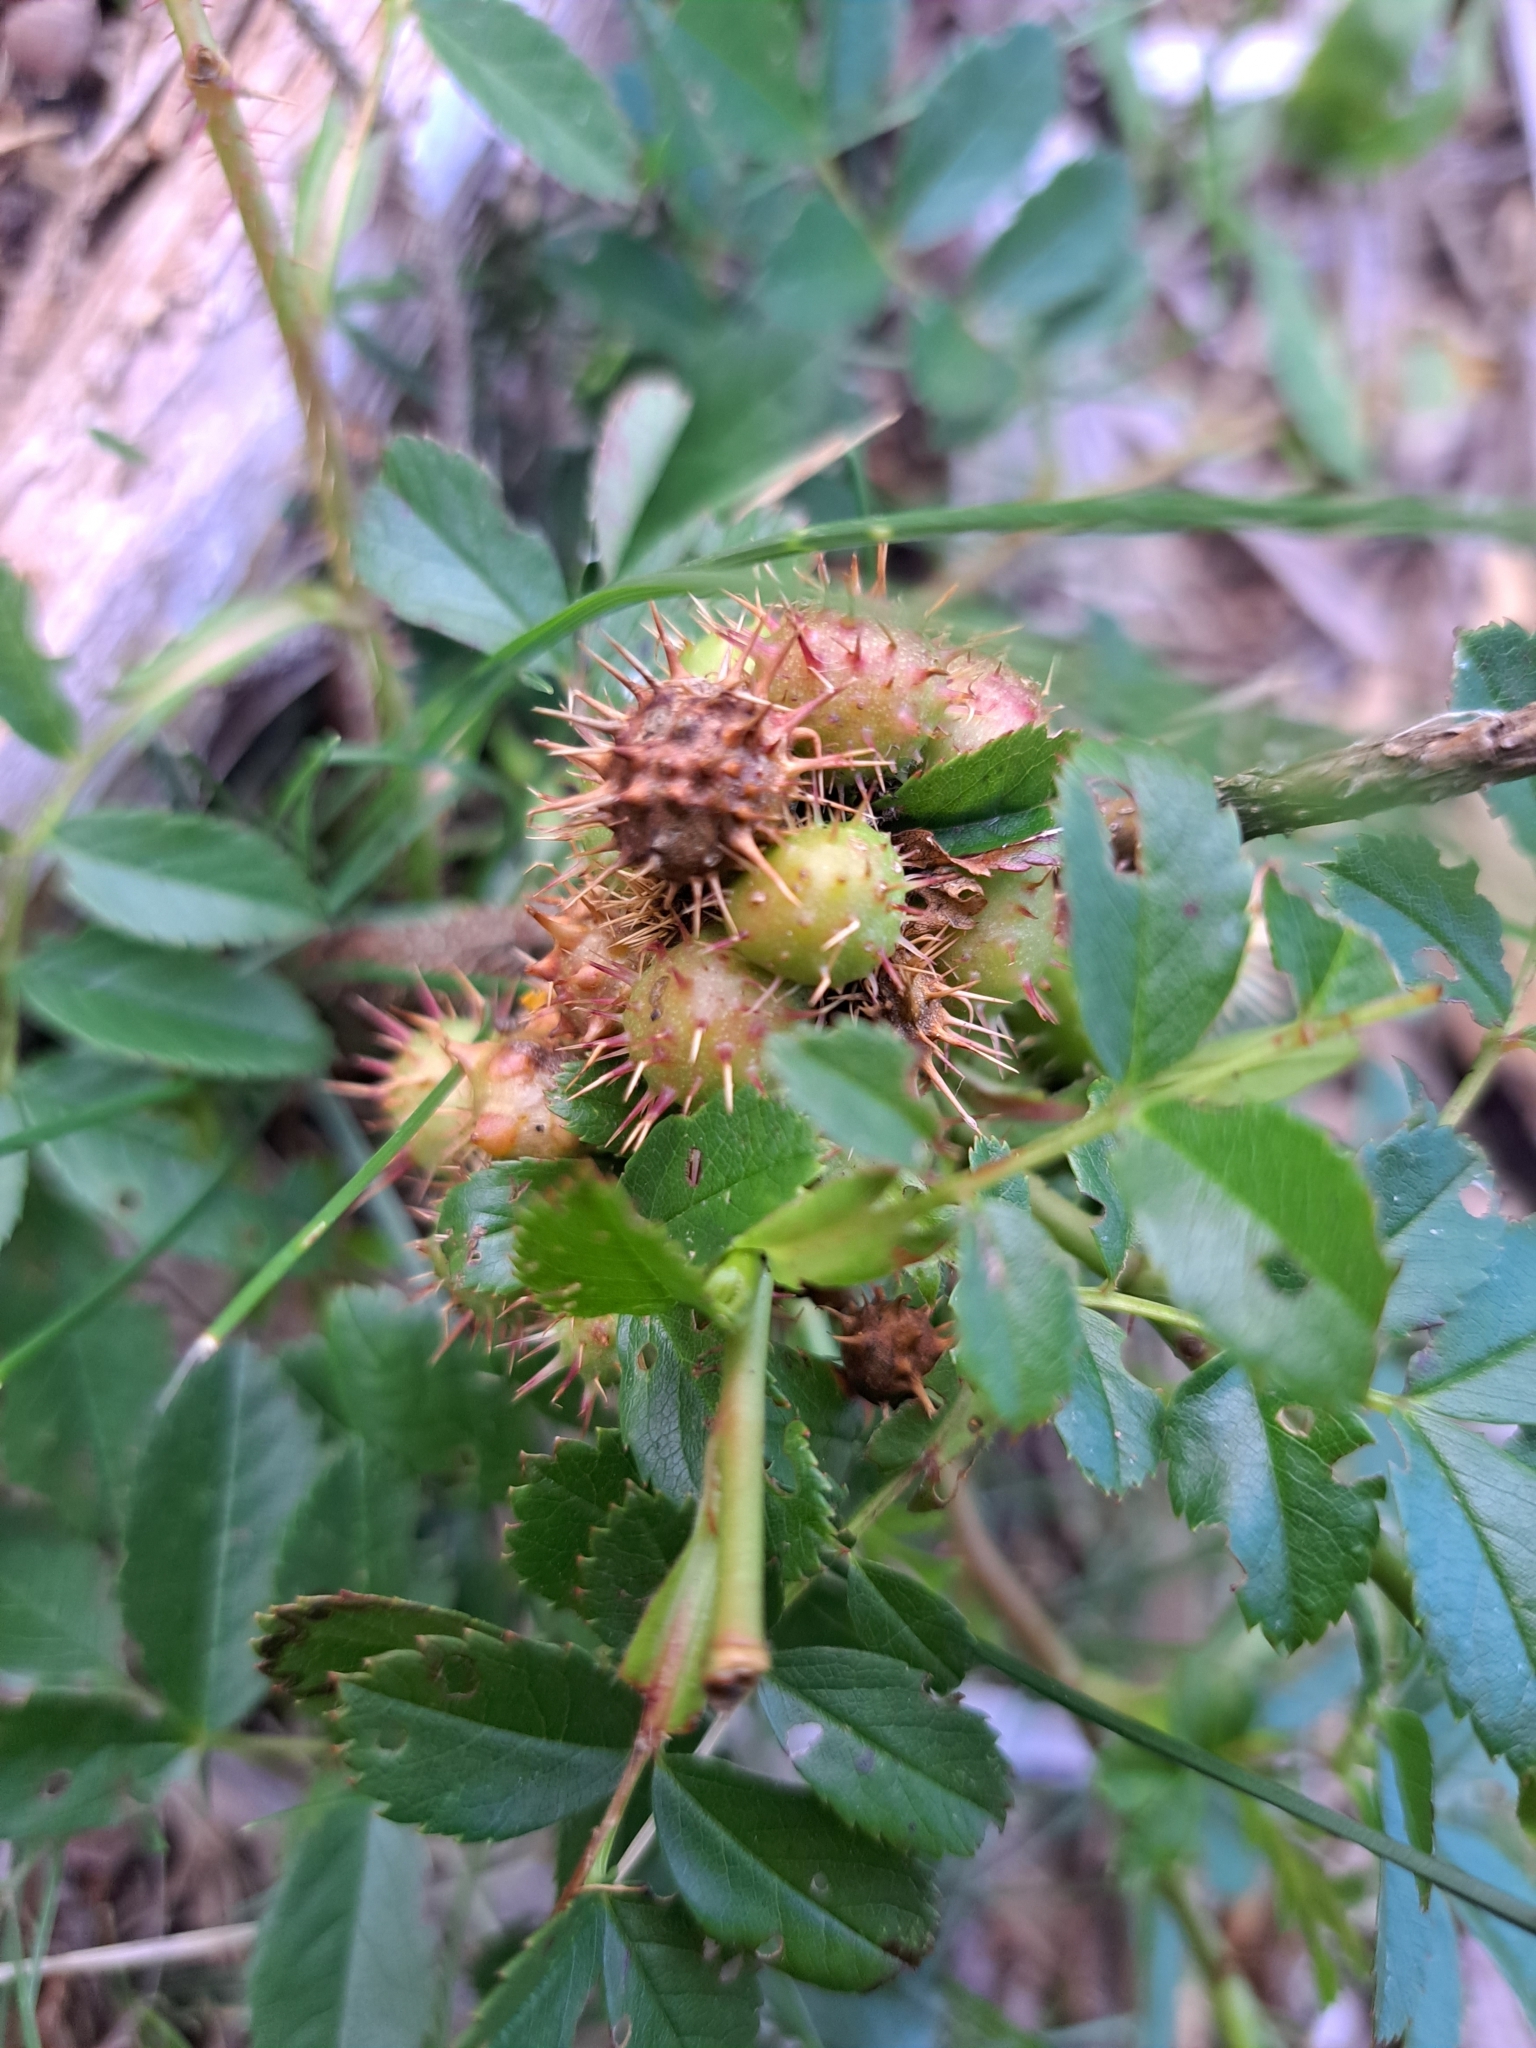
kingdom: Animalia
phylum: Arthropoda
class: Insecta
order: Hymenoptera
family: Cynipidae
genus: Diplolepis
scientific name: Diplolepis polita
